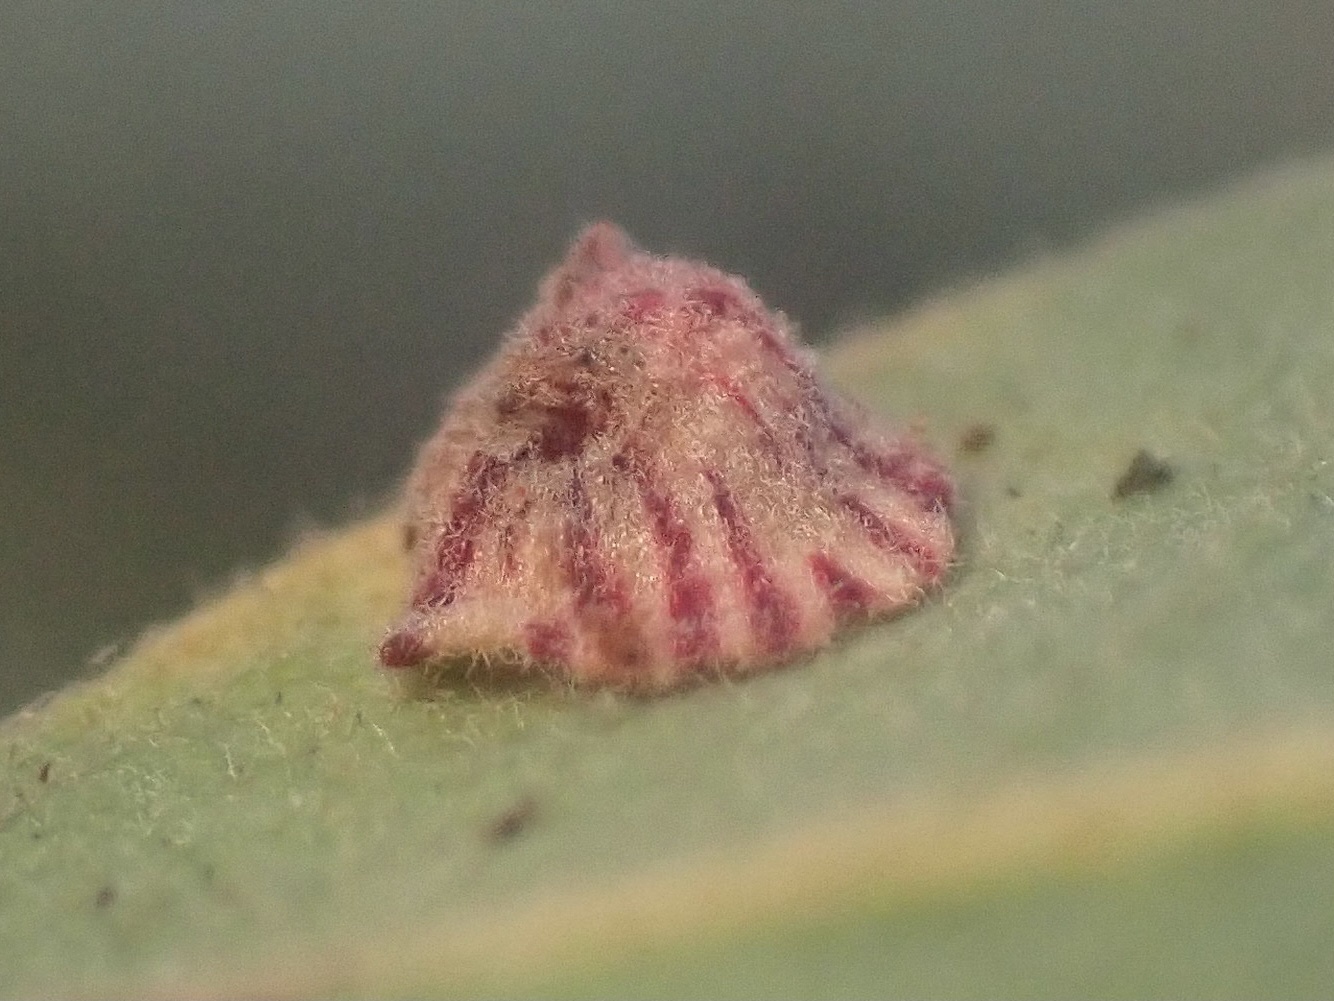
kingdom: Animalia
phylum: Arthropoda
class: Insecta
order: Hymenoptera
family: Cynipidae
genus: Andricus
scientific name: Andricus
